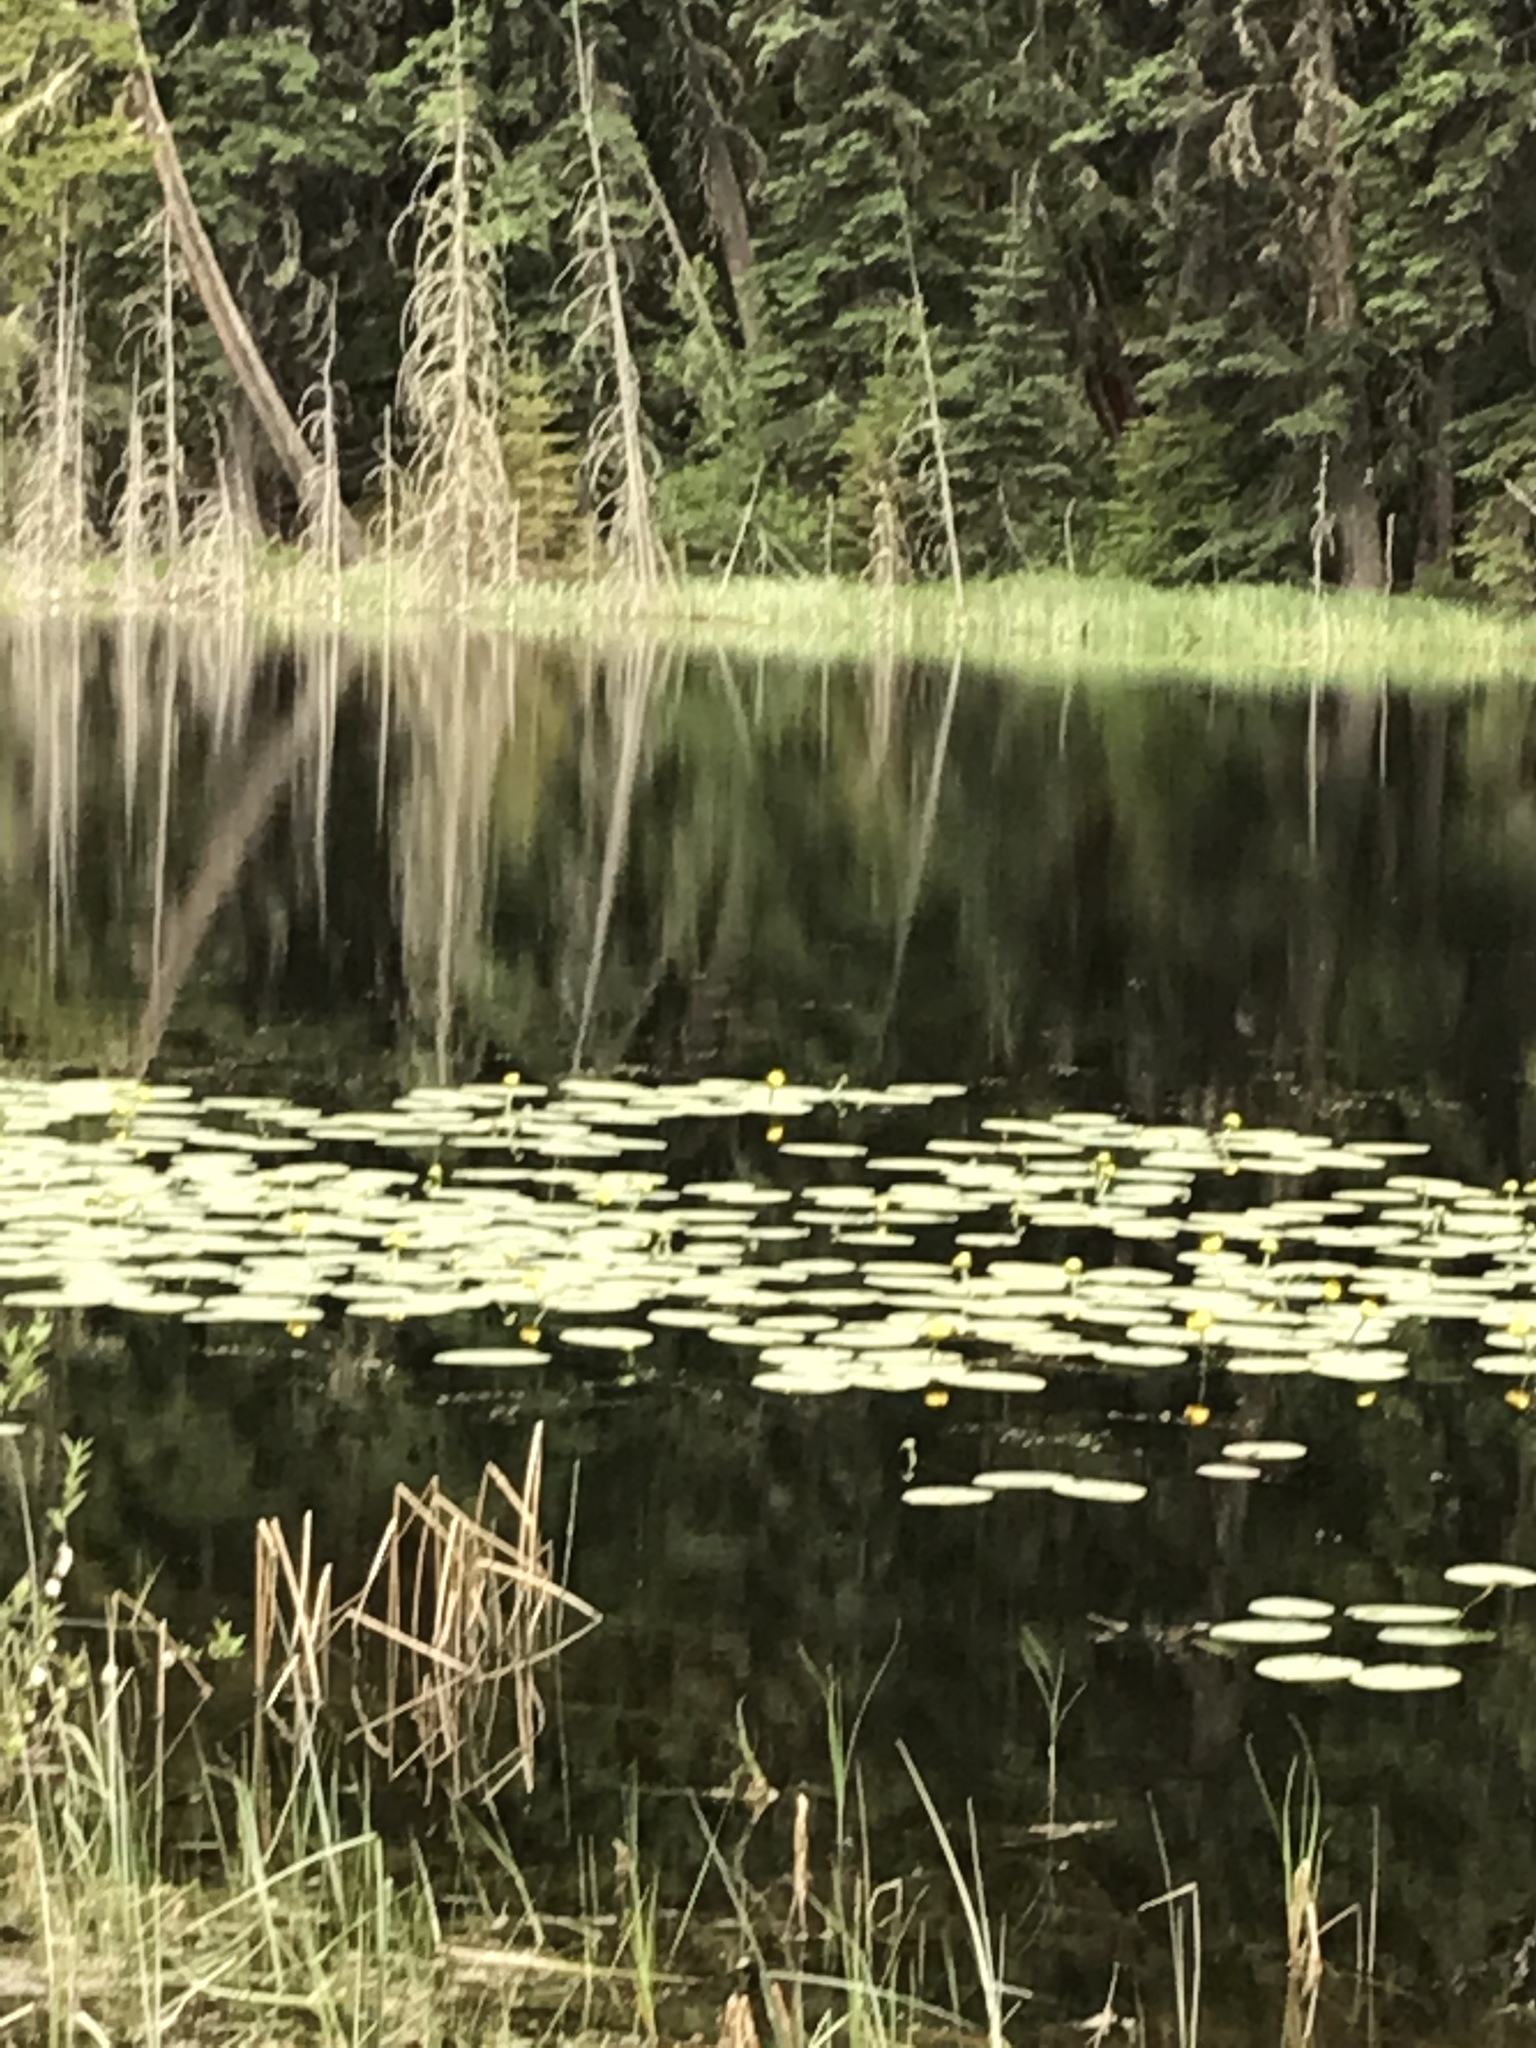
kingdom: Plantae
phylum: Tracheophyta
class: Magnoliopsida
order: Nymphaeales
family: Nymphaeaceae
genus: Nuphar
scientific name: Nuphar variegata
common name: Beaver-root
